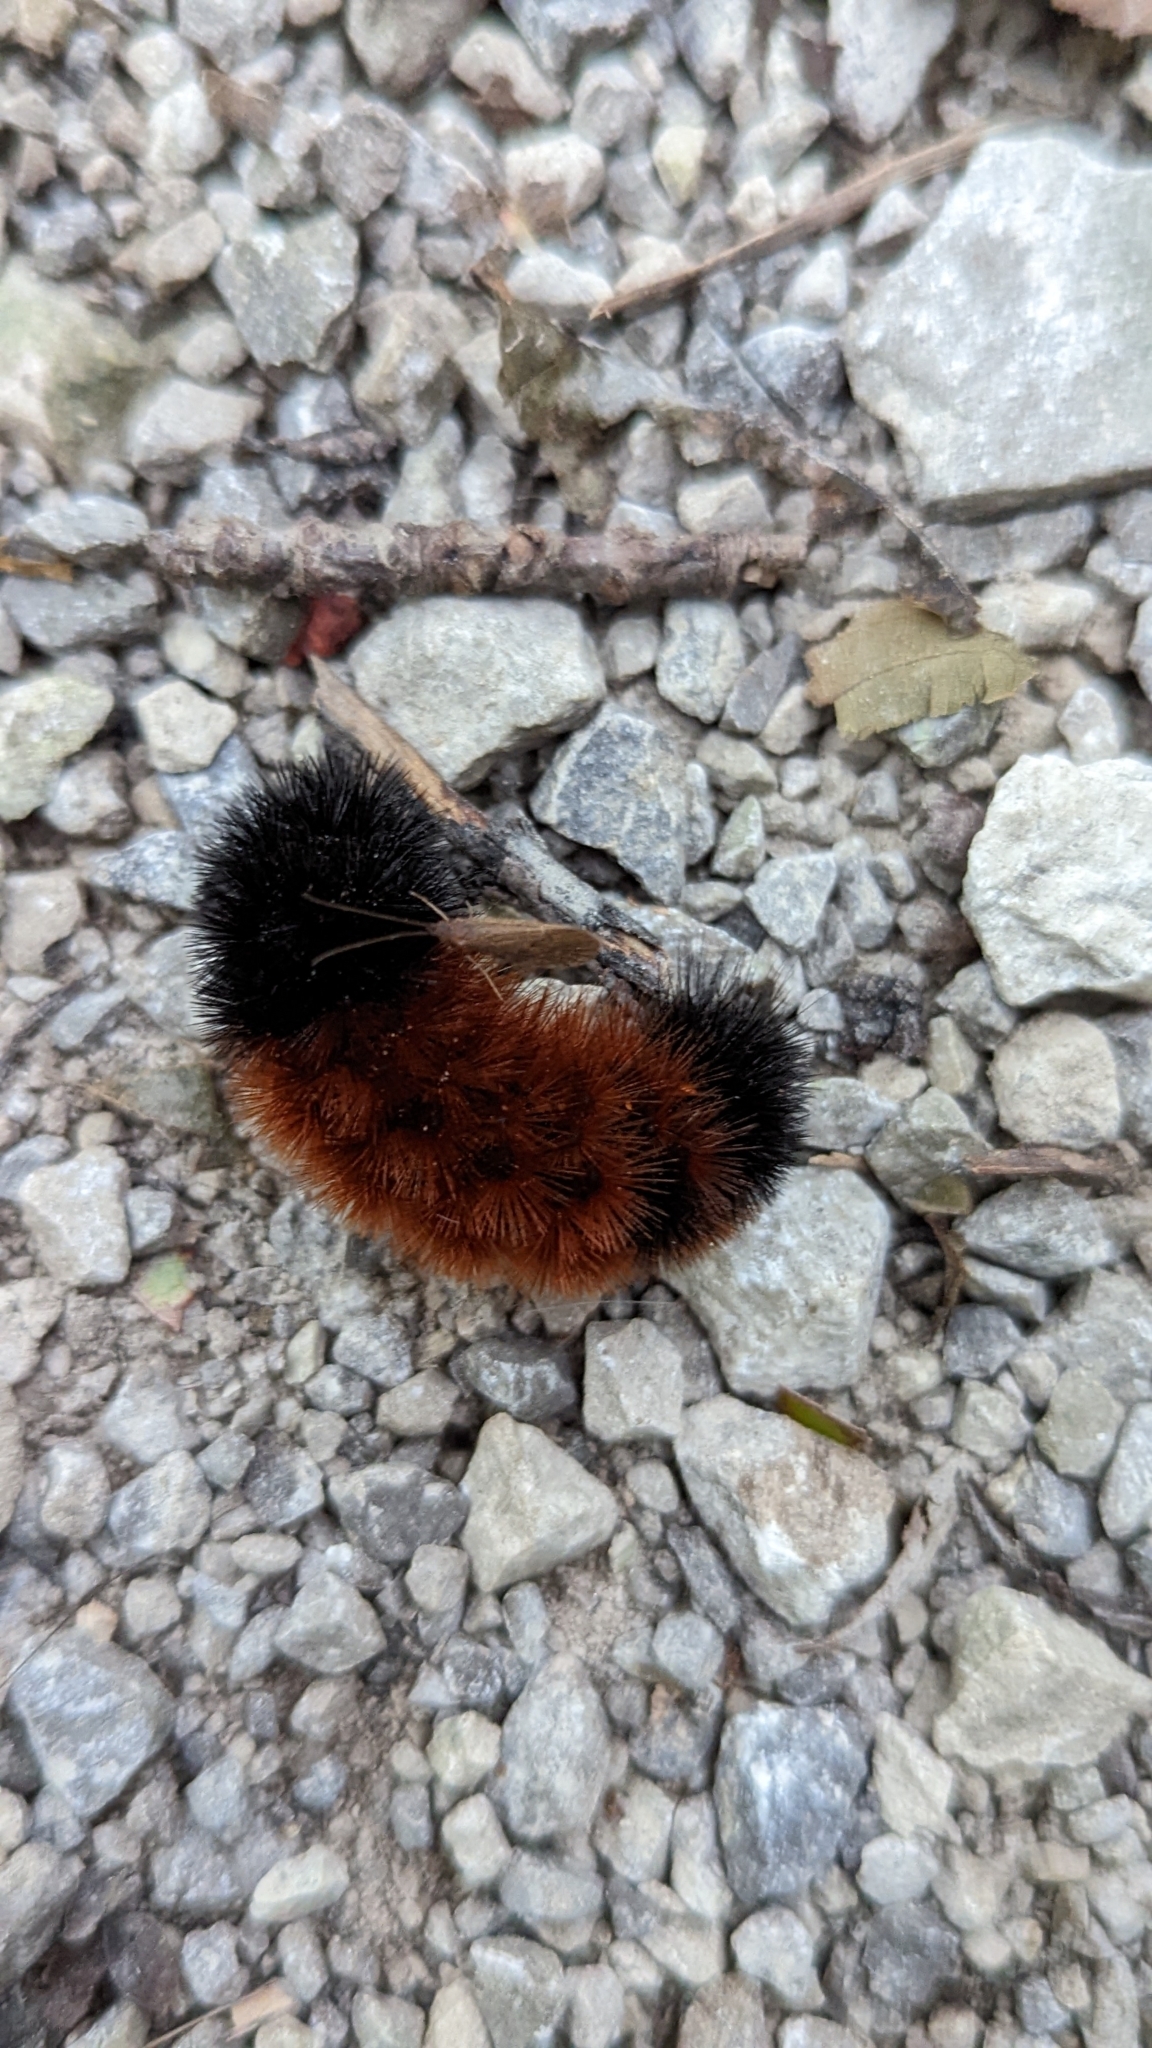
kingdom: Animalia
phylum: Arthropoda
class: Insecta
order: Lepidoptera
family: Erebidae
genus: Pyrrharctia
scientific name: Pyrrharctia isabella
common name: Isabella tiger moth
